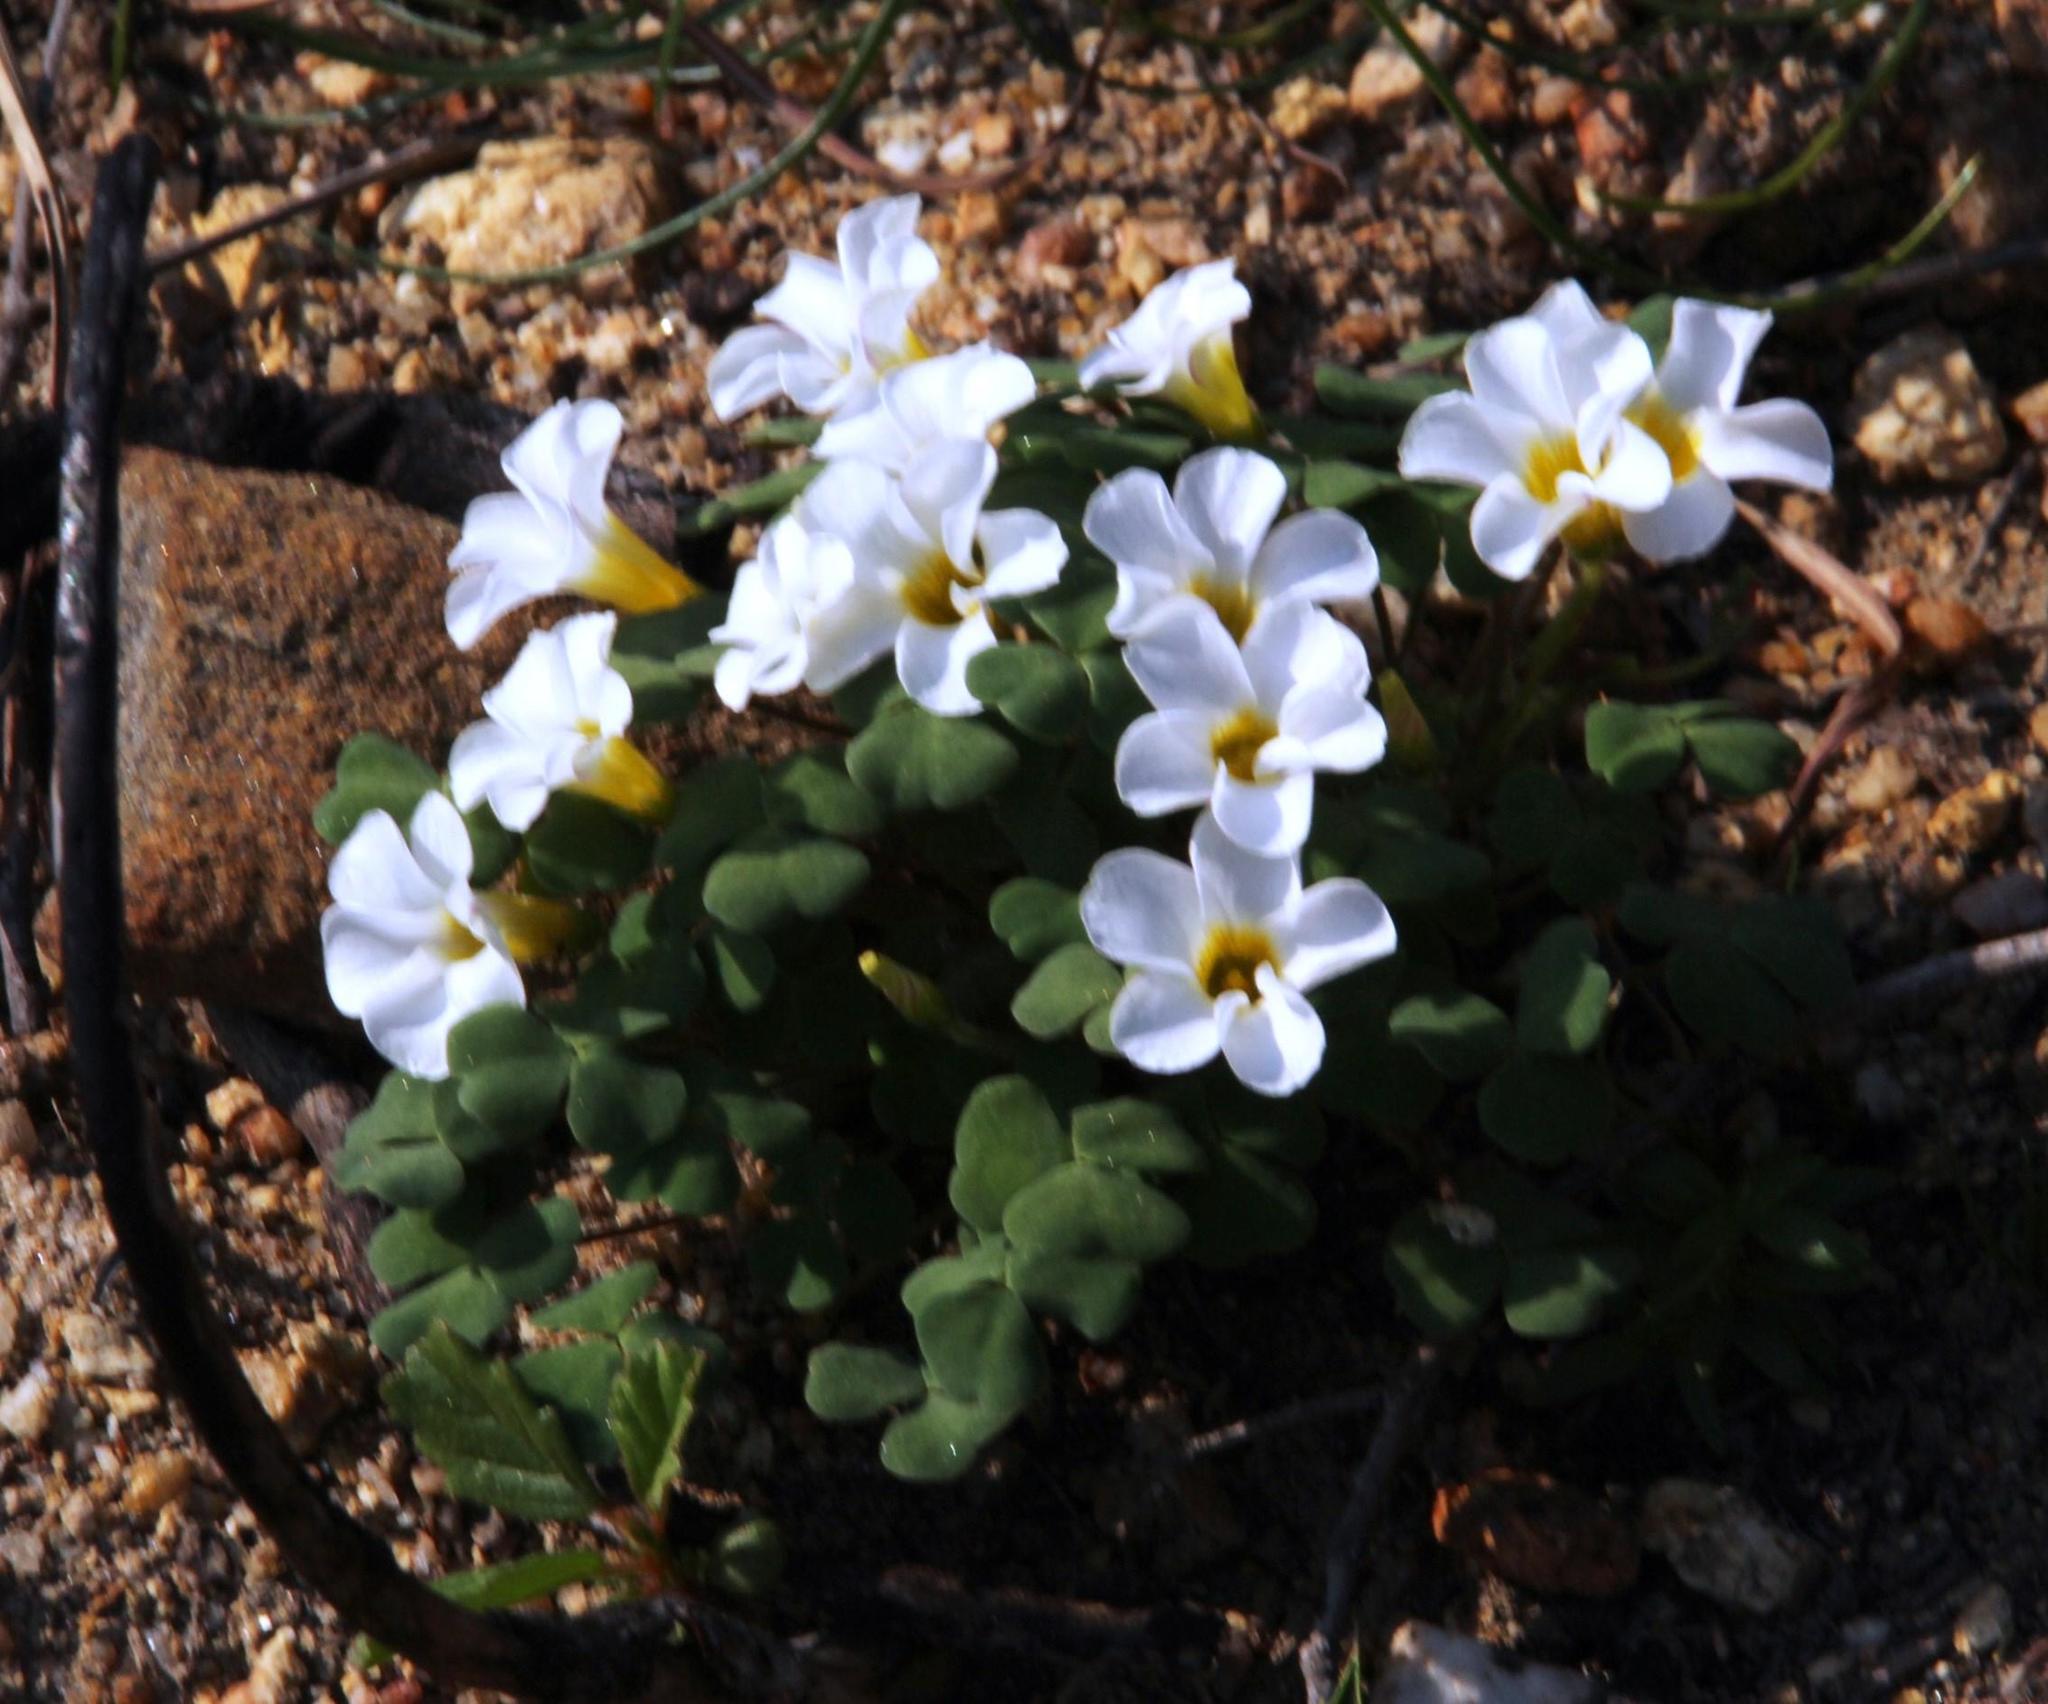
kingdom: Plantae
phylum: Tracheophyta
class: Magnoliopsida
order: Oxalidales
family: Oxalidaceae
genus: Oxalis
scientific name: Oxalis punctata
